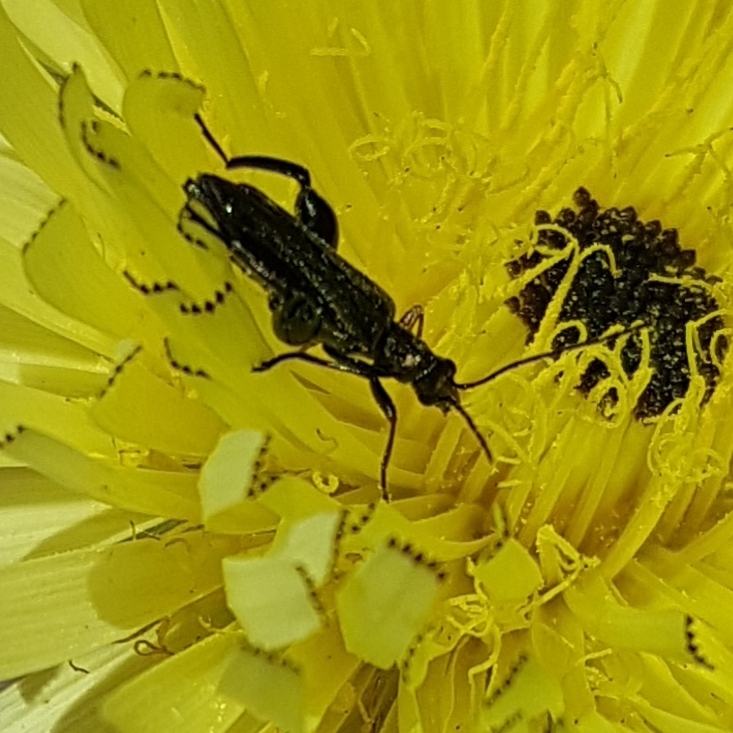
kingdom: Animalia
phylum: Arthropoda
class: Insecta
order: Coleoptera
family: Oedemeridae
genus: Oedemera
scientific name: Oedemera flavipes
